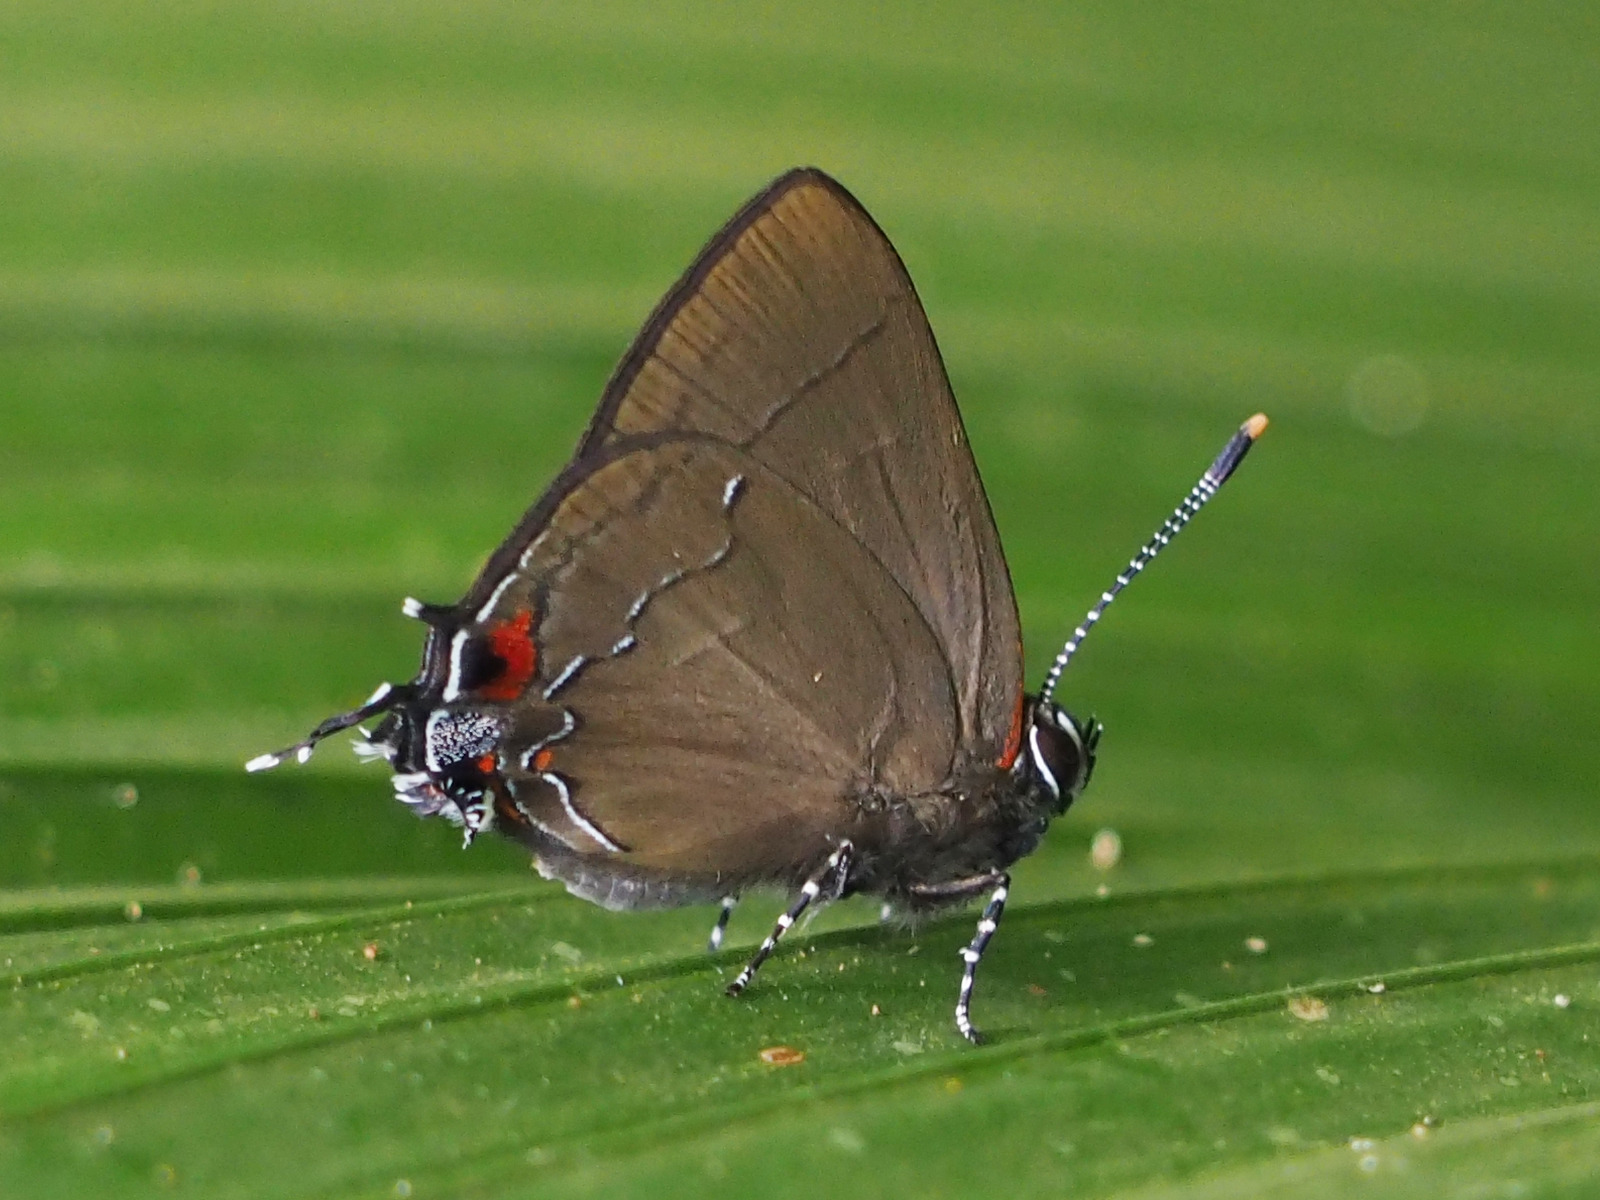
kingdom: Animalia
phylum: Arthropoda
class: Insecta
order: Lepidoptera
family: Lycaenidae
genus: Arumecla
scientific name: Arumecla galliena
